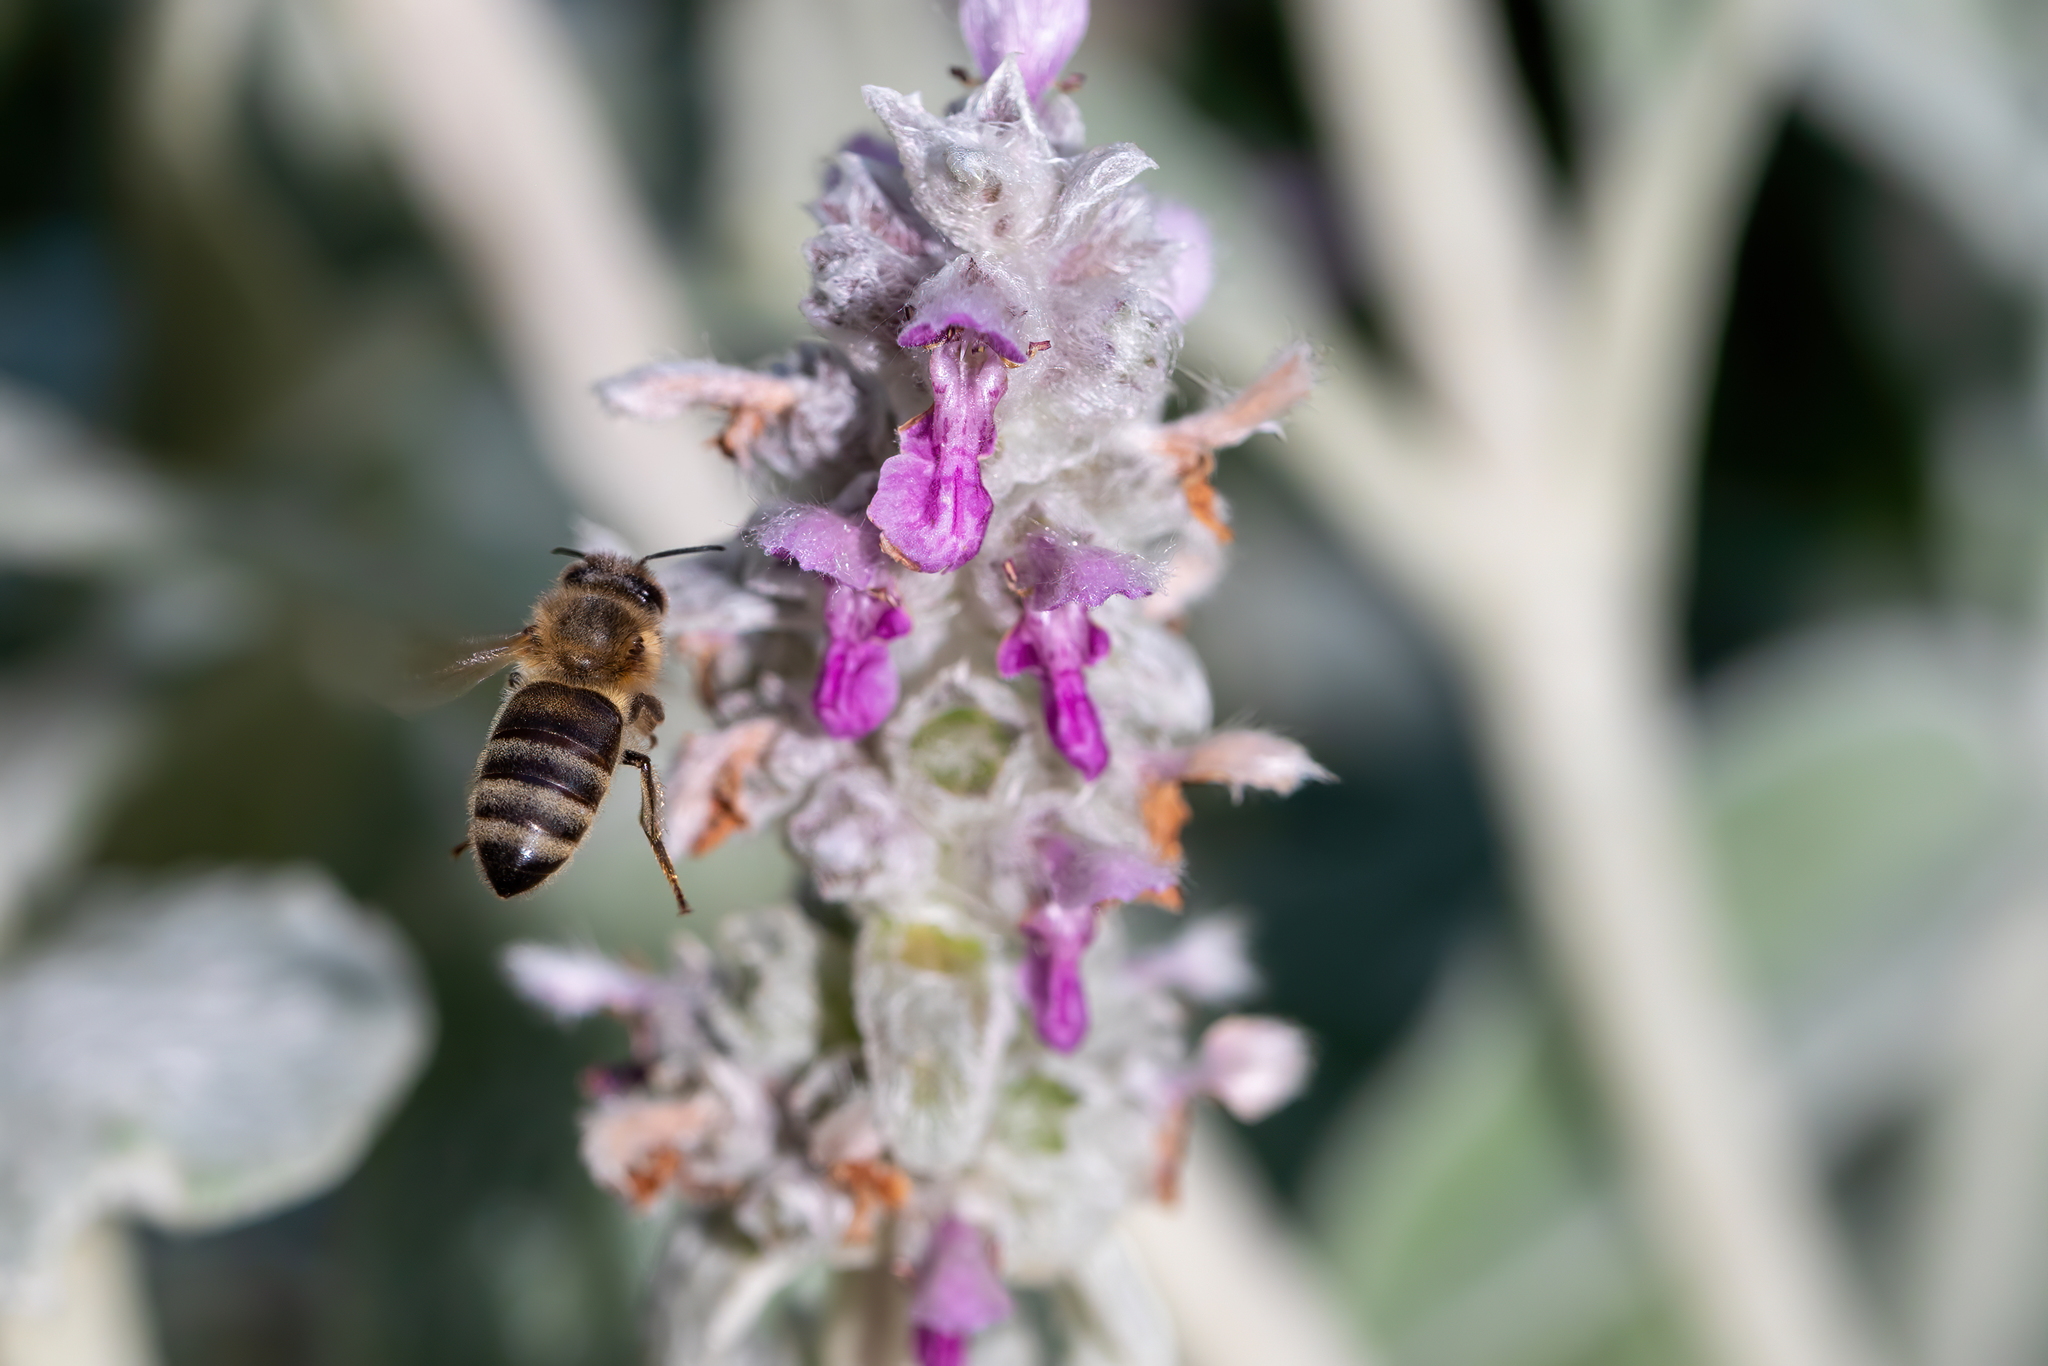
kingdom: Animalia
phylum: Arthropoda
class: Insecta
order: Hymenoptera
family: Apidae
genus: Apis
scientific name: Apis mellifera
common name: Honey bee
